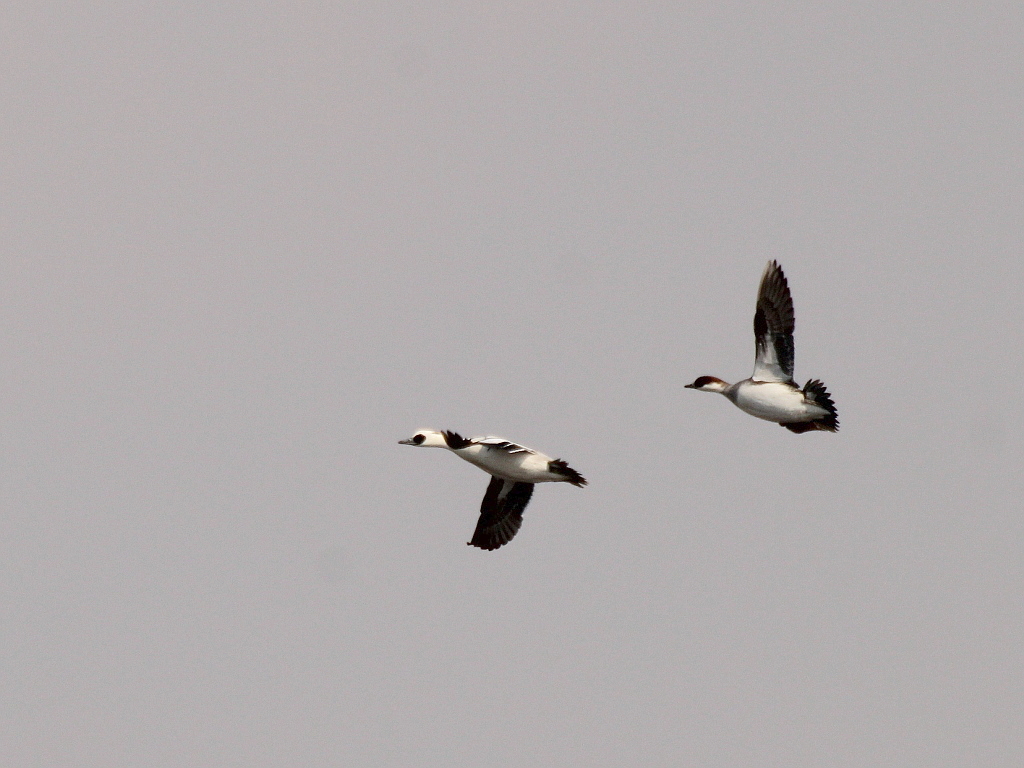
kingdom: Animalia
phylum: Chordata
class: Aves
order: Anseriformes
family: Anatidae
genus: Mergellus
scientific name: Mergellus albellus
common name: Smew
